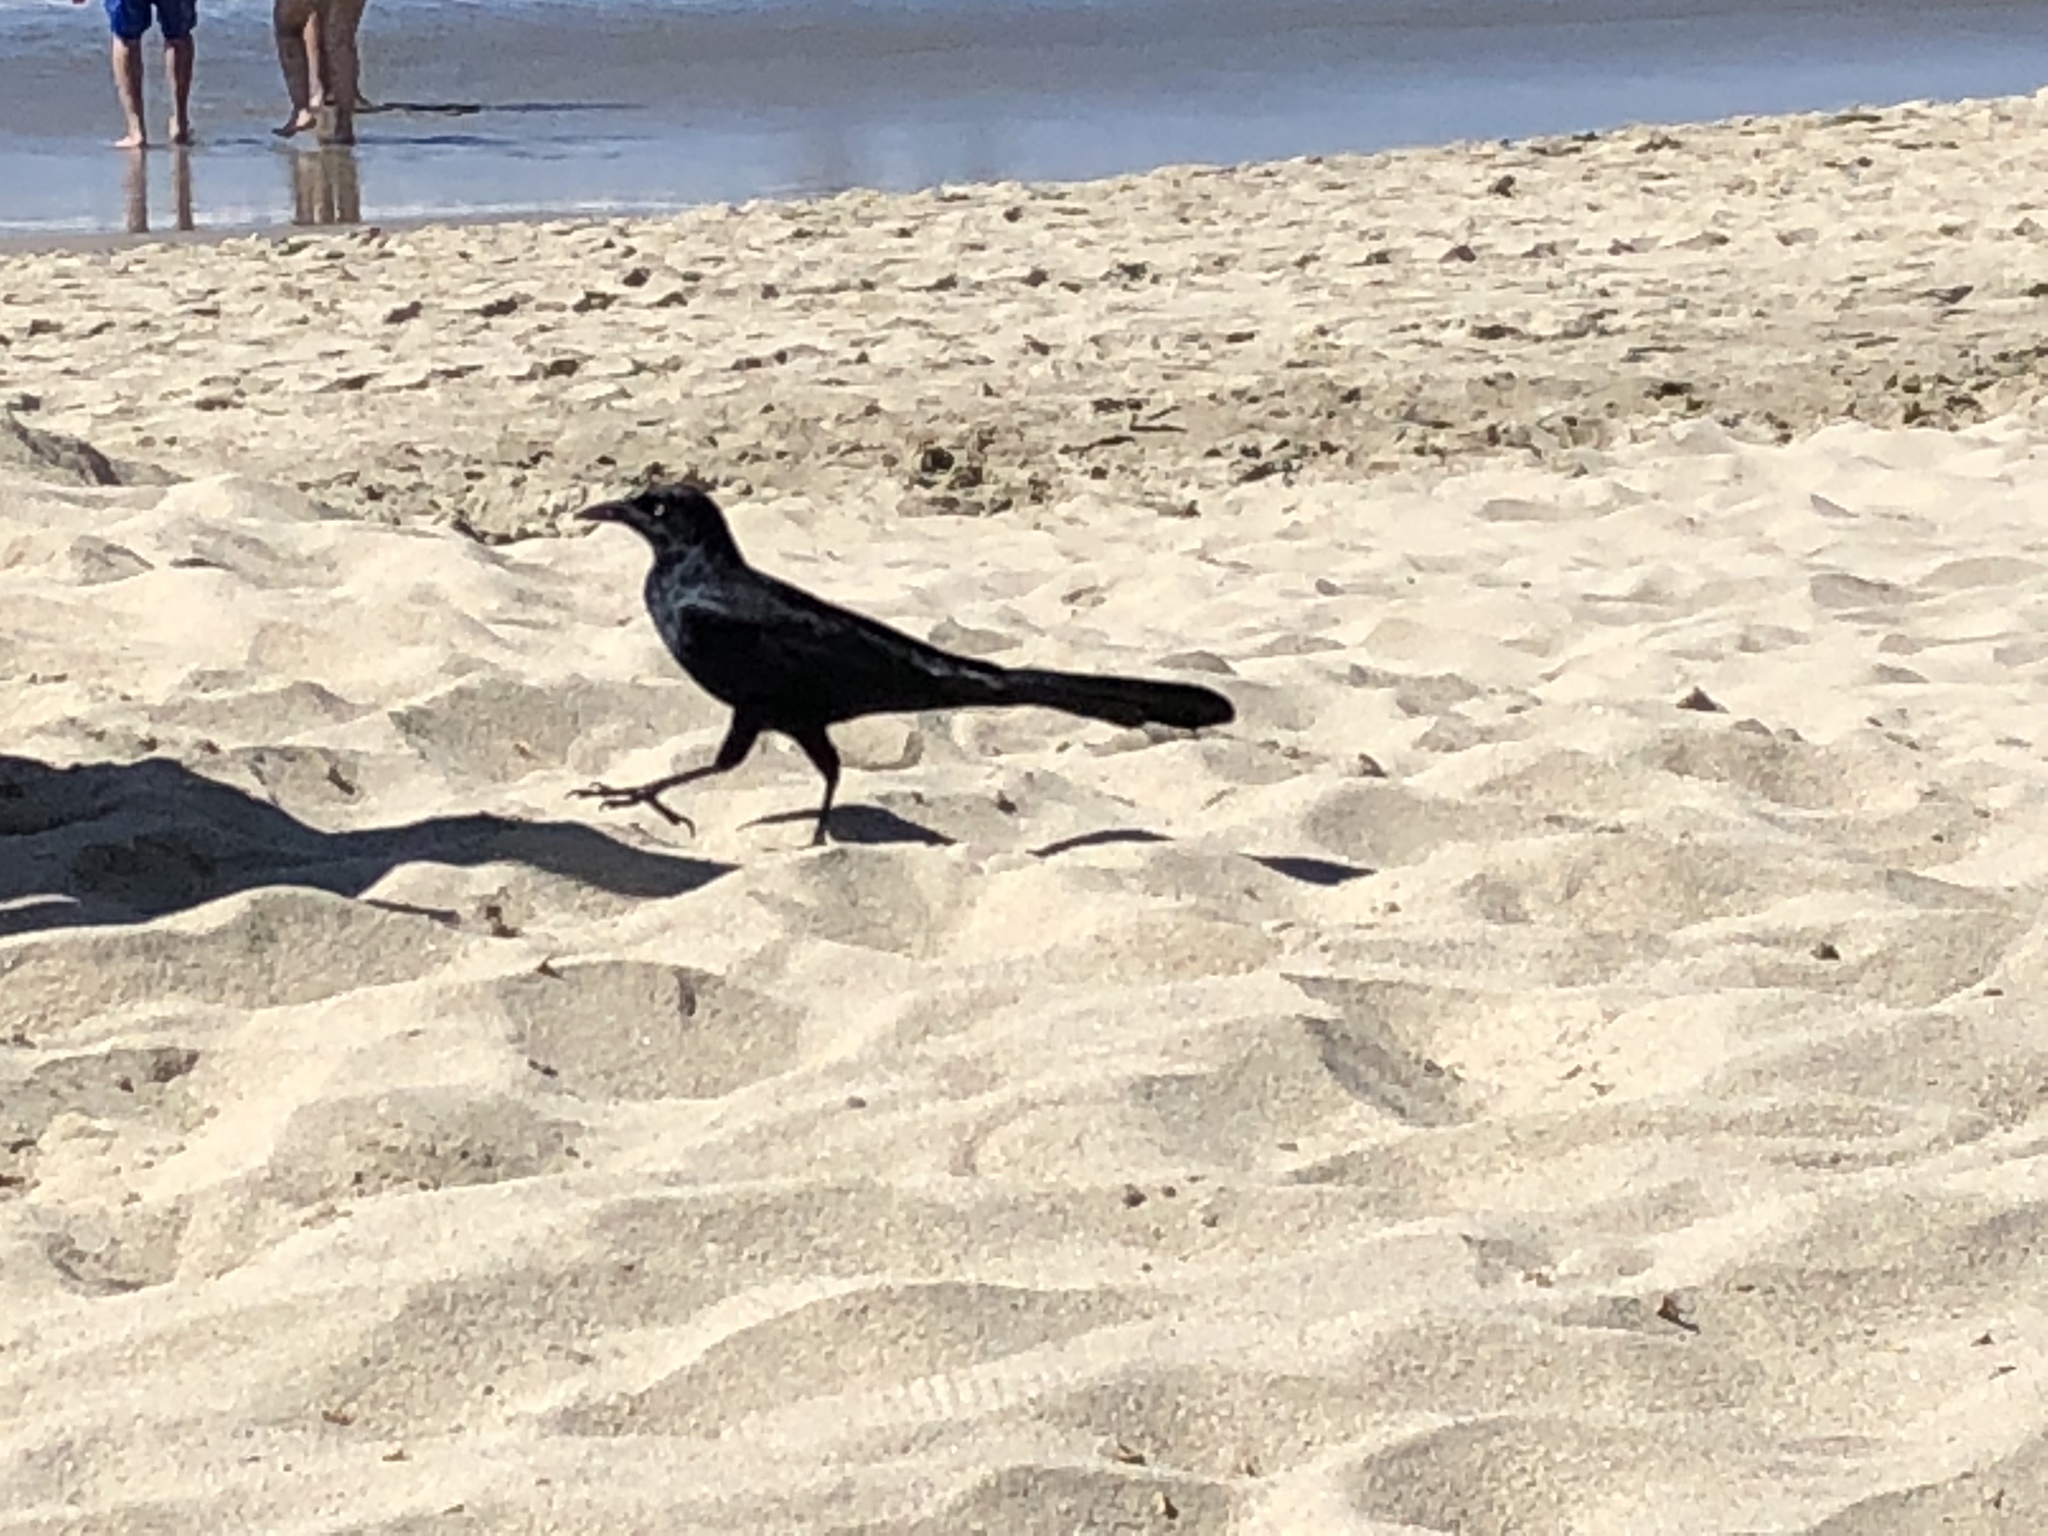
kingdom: Animalia
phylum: Chordata
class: Aves
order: Passeriformes
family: Icteridae
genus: Quiscalus
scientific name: Quiscalus mexicanus
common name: Great-tailed grackle
